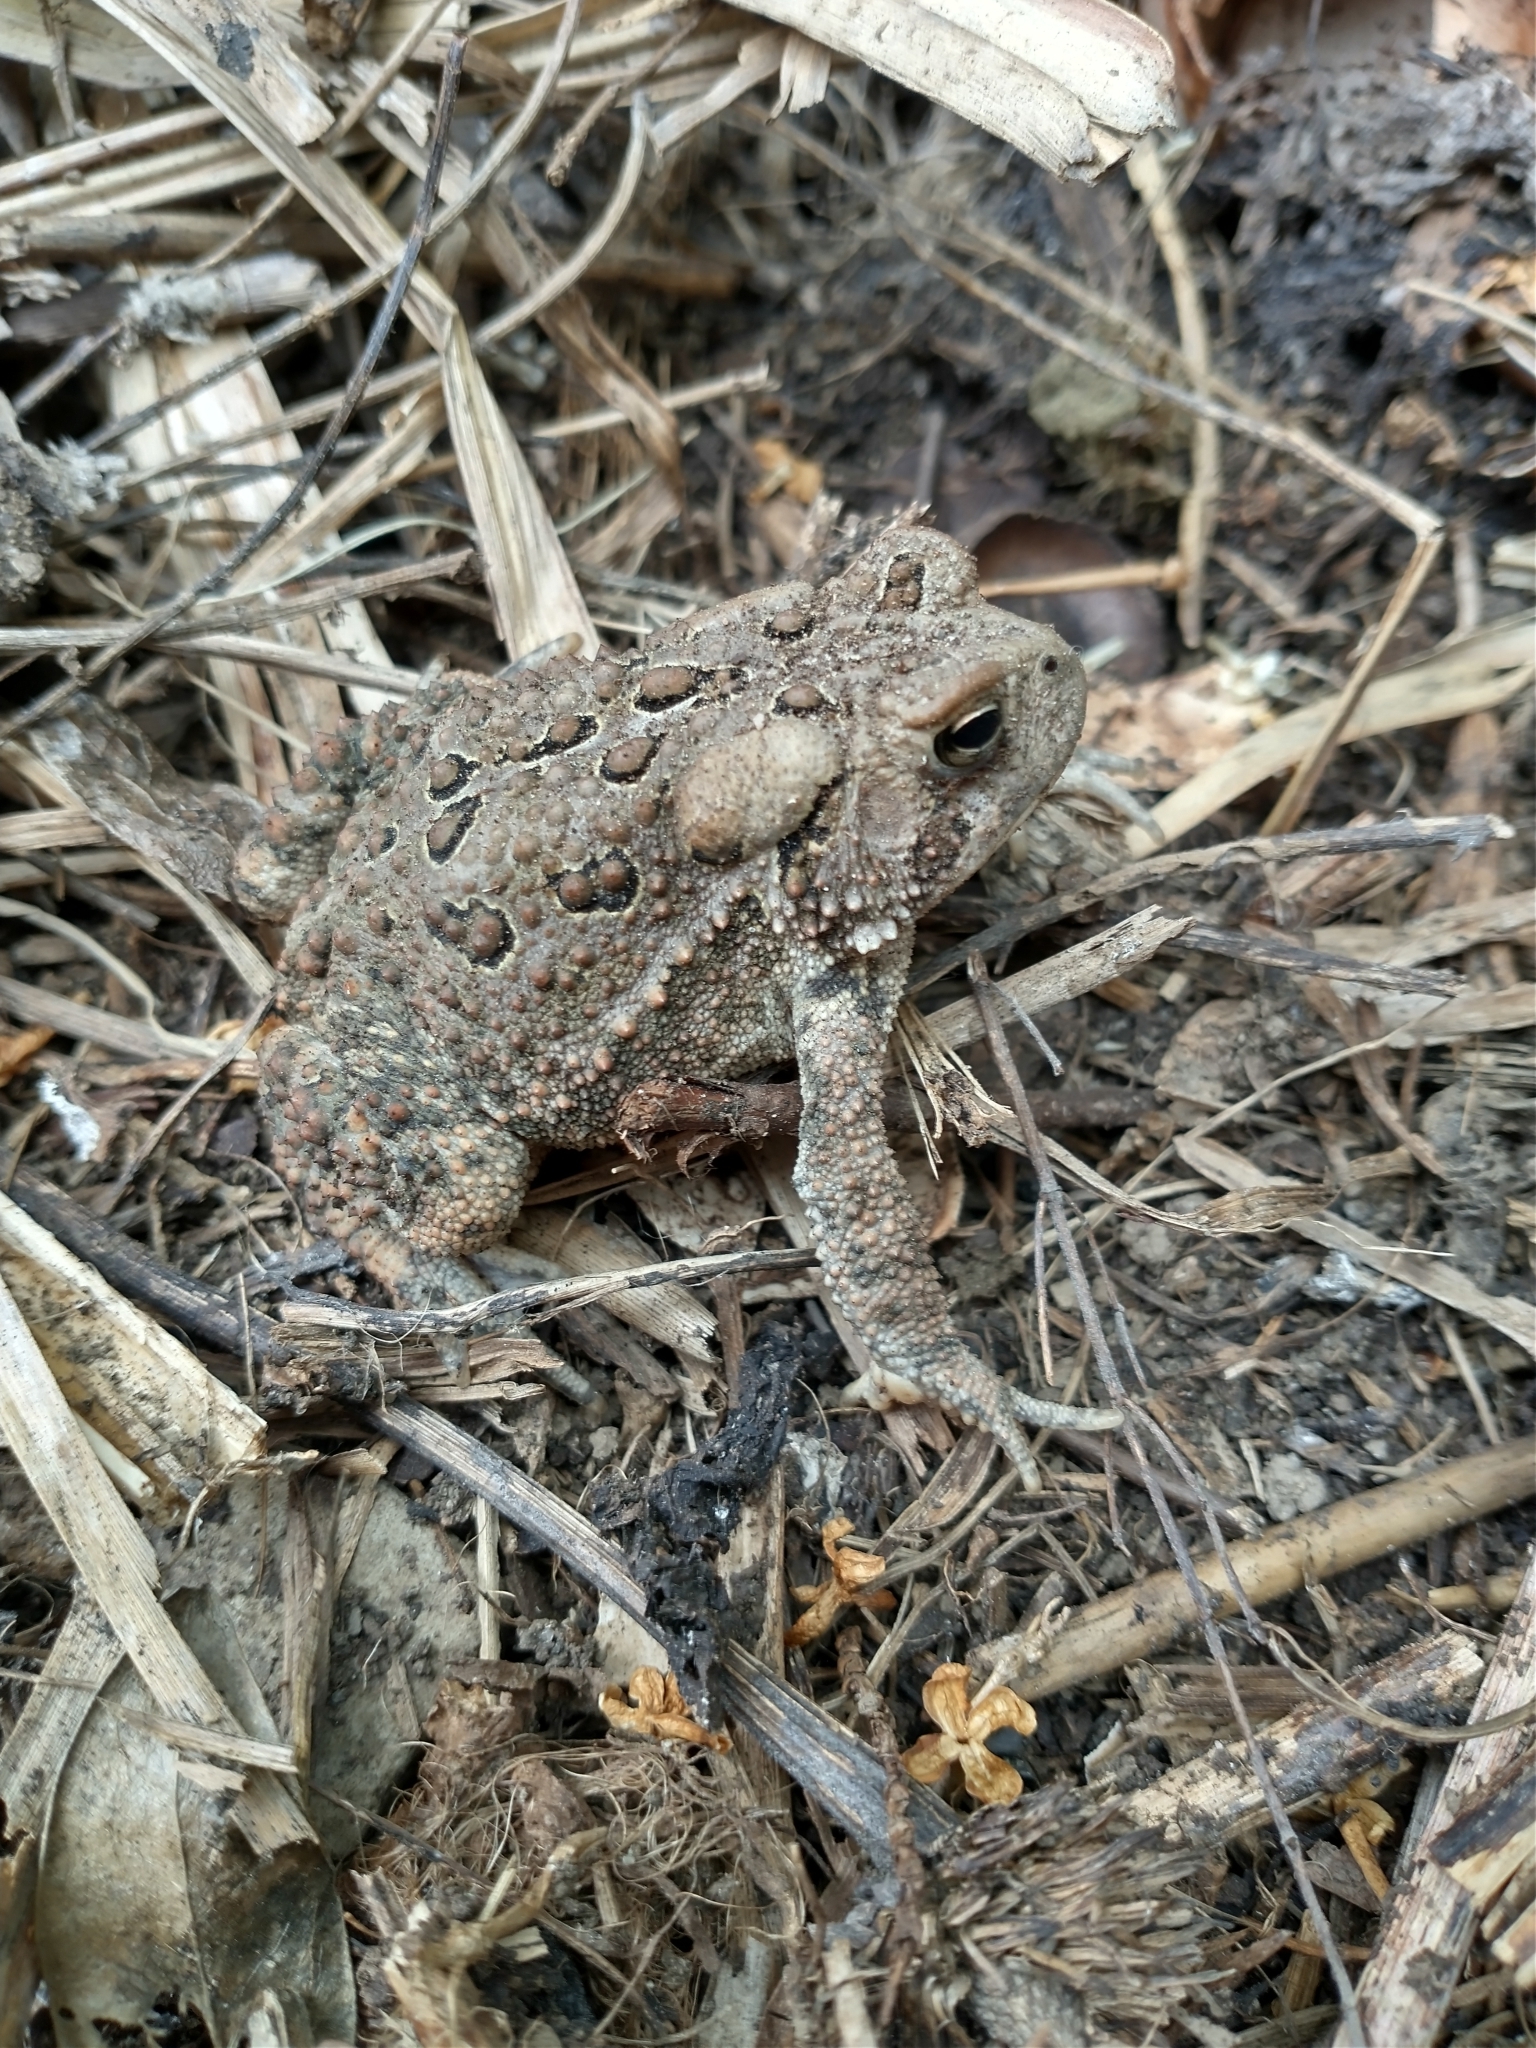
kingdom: Animalia
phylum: Chordata
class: Amphibia
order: Anura
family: Bufonidae
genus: Anaxyrus
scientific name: Anaxyrus americanus
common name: American toad
